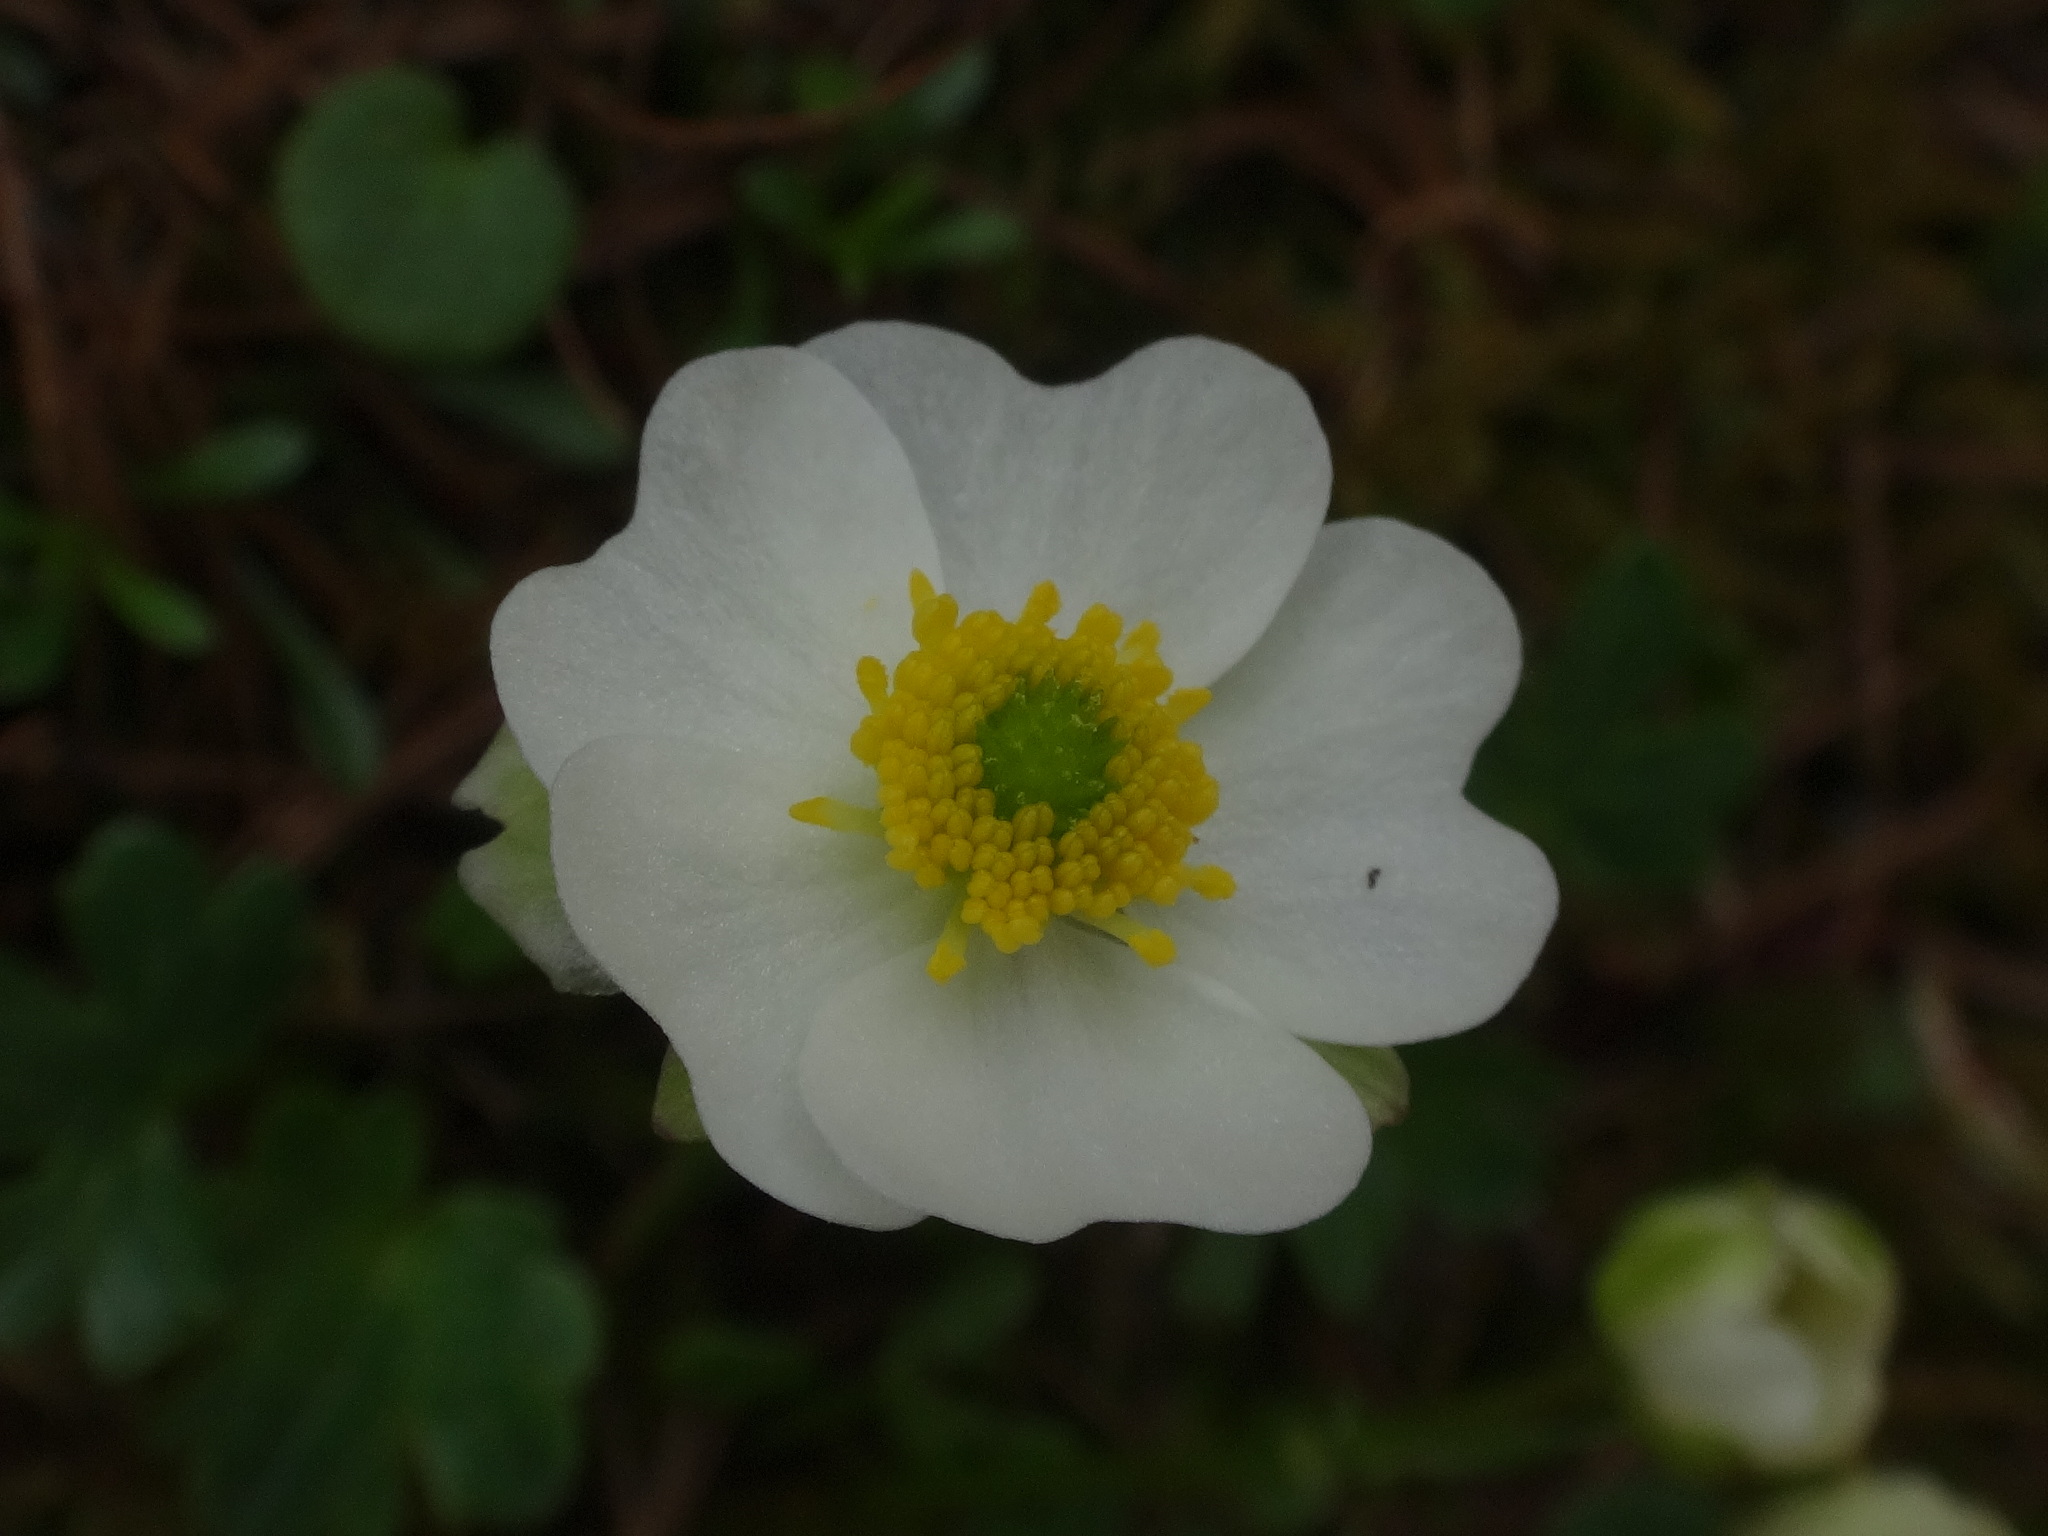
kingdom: Plantae
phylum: Tracheophyta
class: Magnoliopsida
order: Ranunculales
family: Ranunculaceae
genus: Ranunculus
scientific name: Ranunculus alpestris
